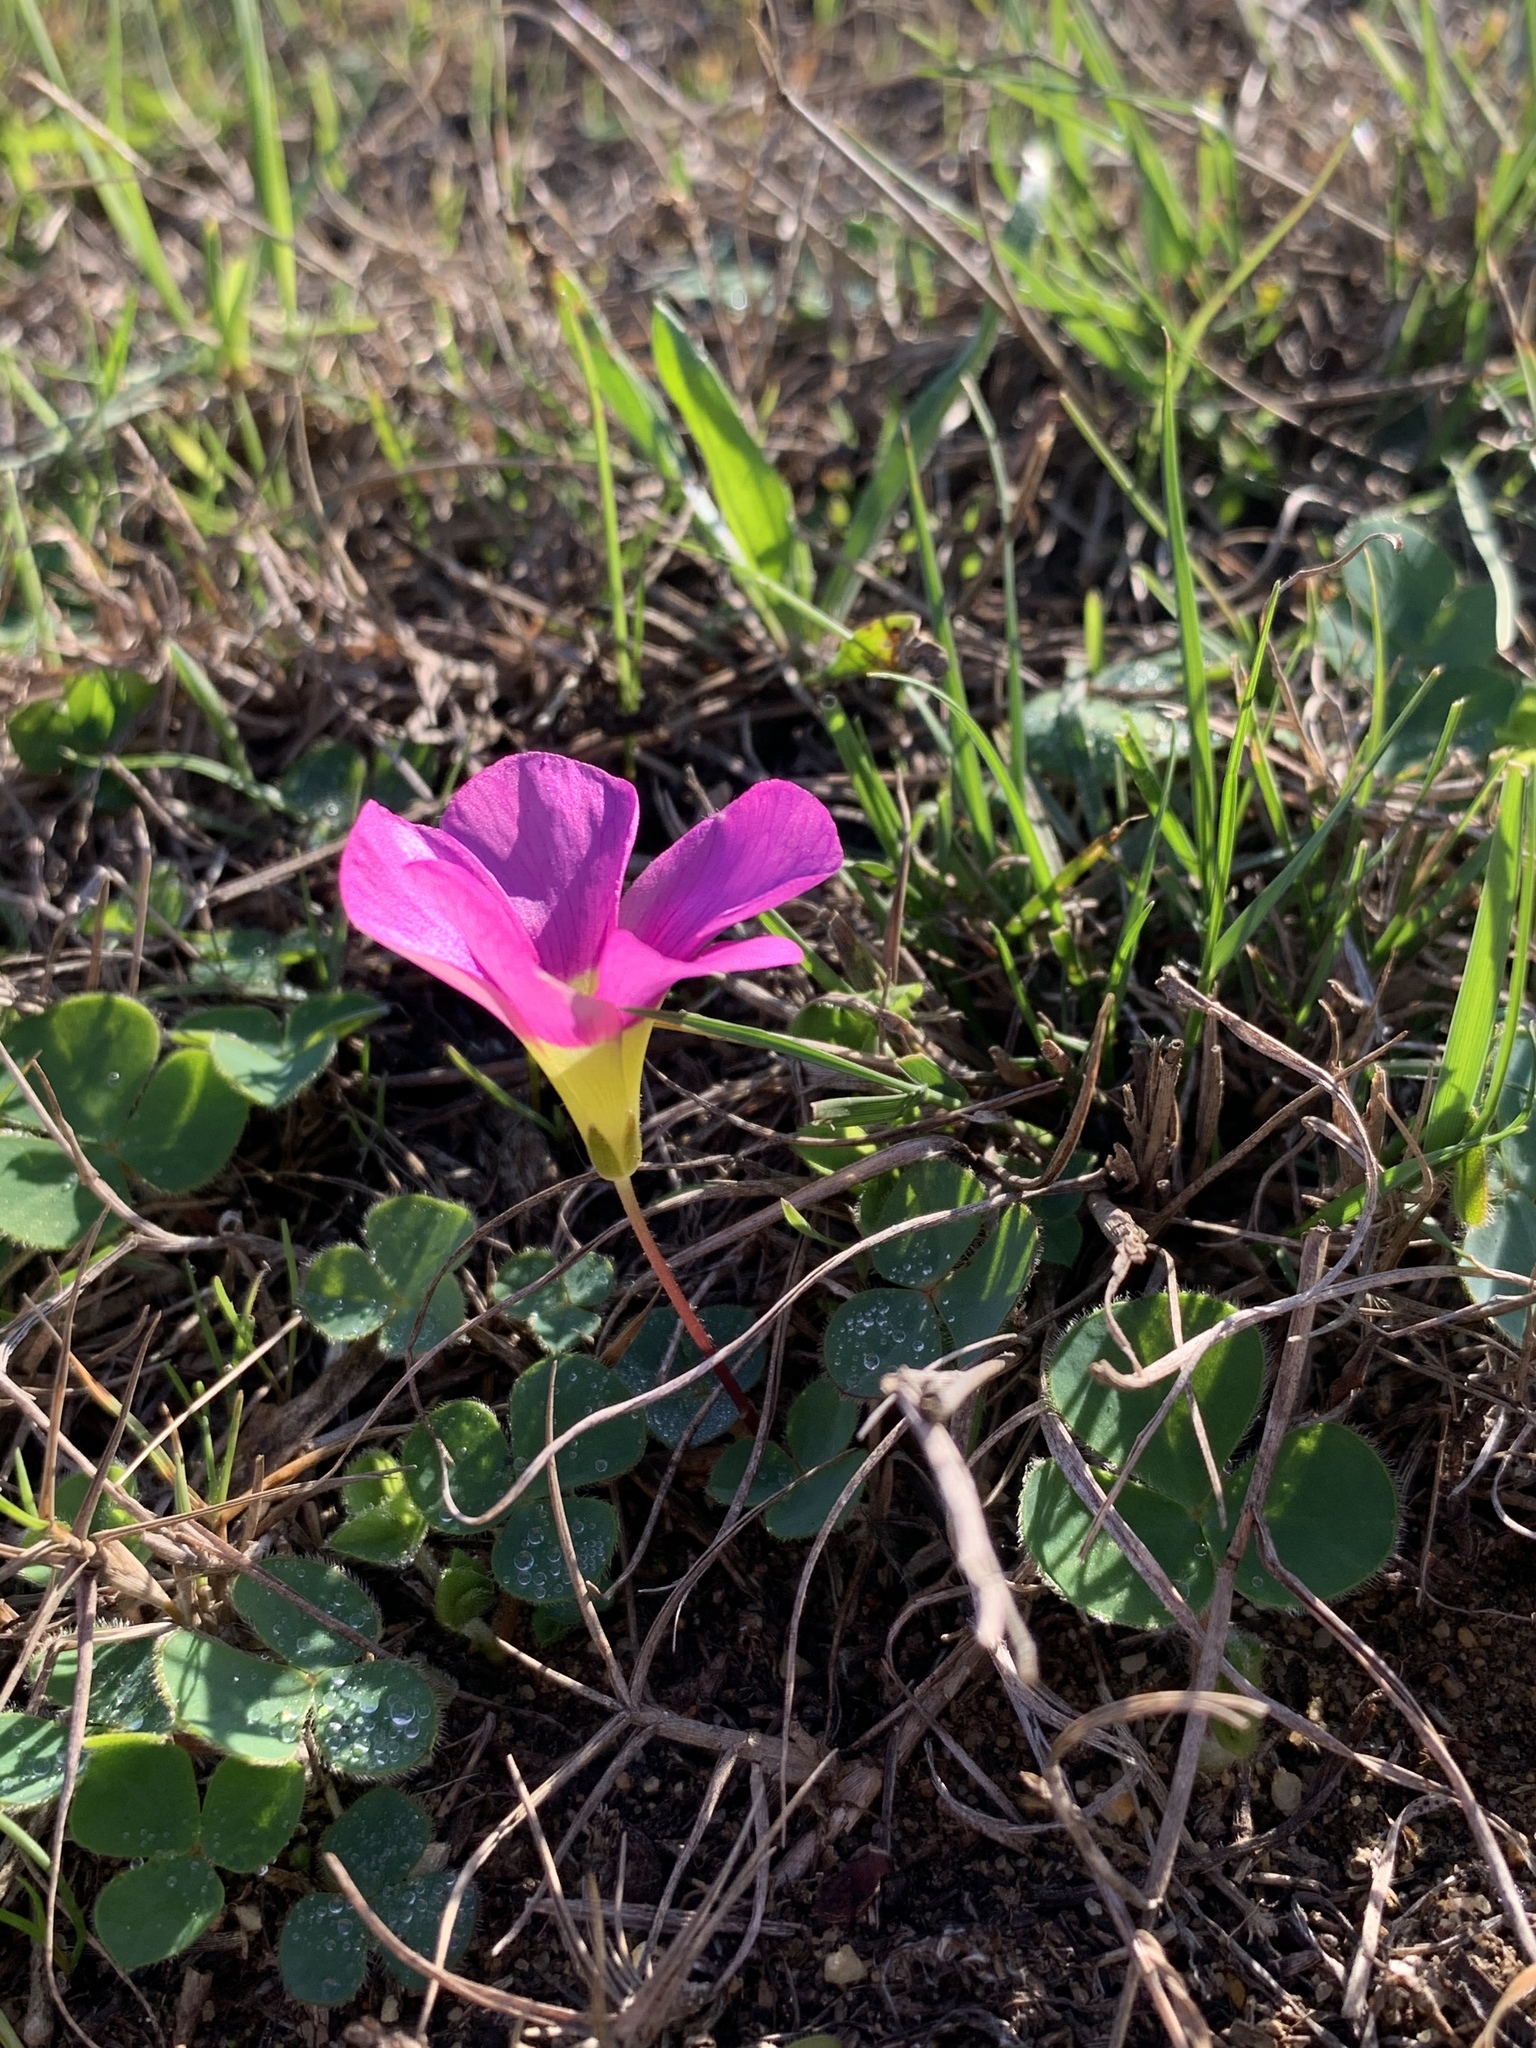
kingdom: Plantae
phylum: Tracheophyta
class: Magnoliopsida
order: Oxalidales
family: Oxalidaceae
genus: Oxalis
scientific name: Oxalis purpurea
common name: Purple woodsorrel
